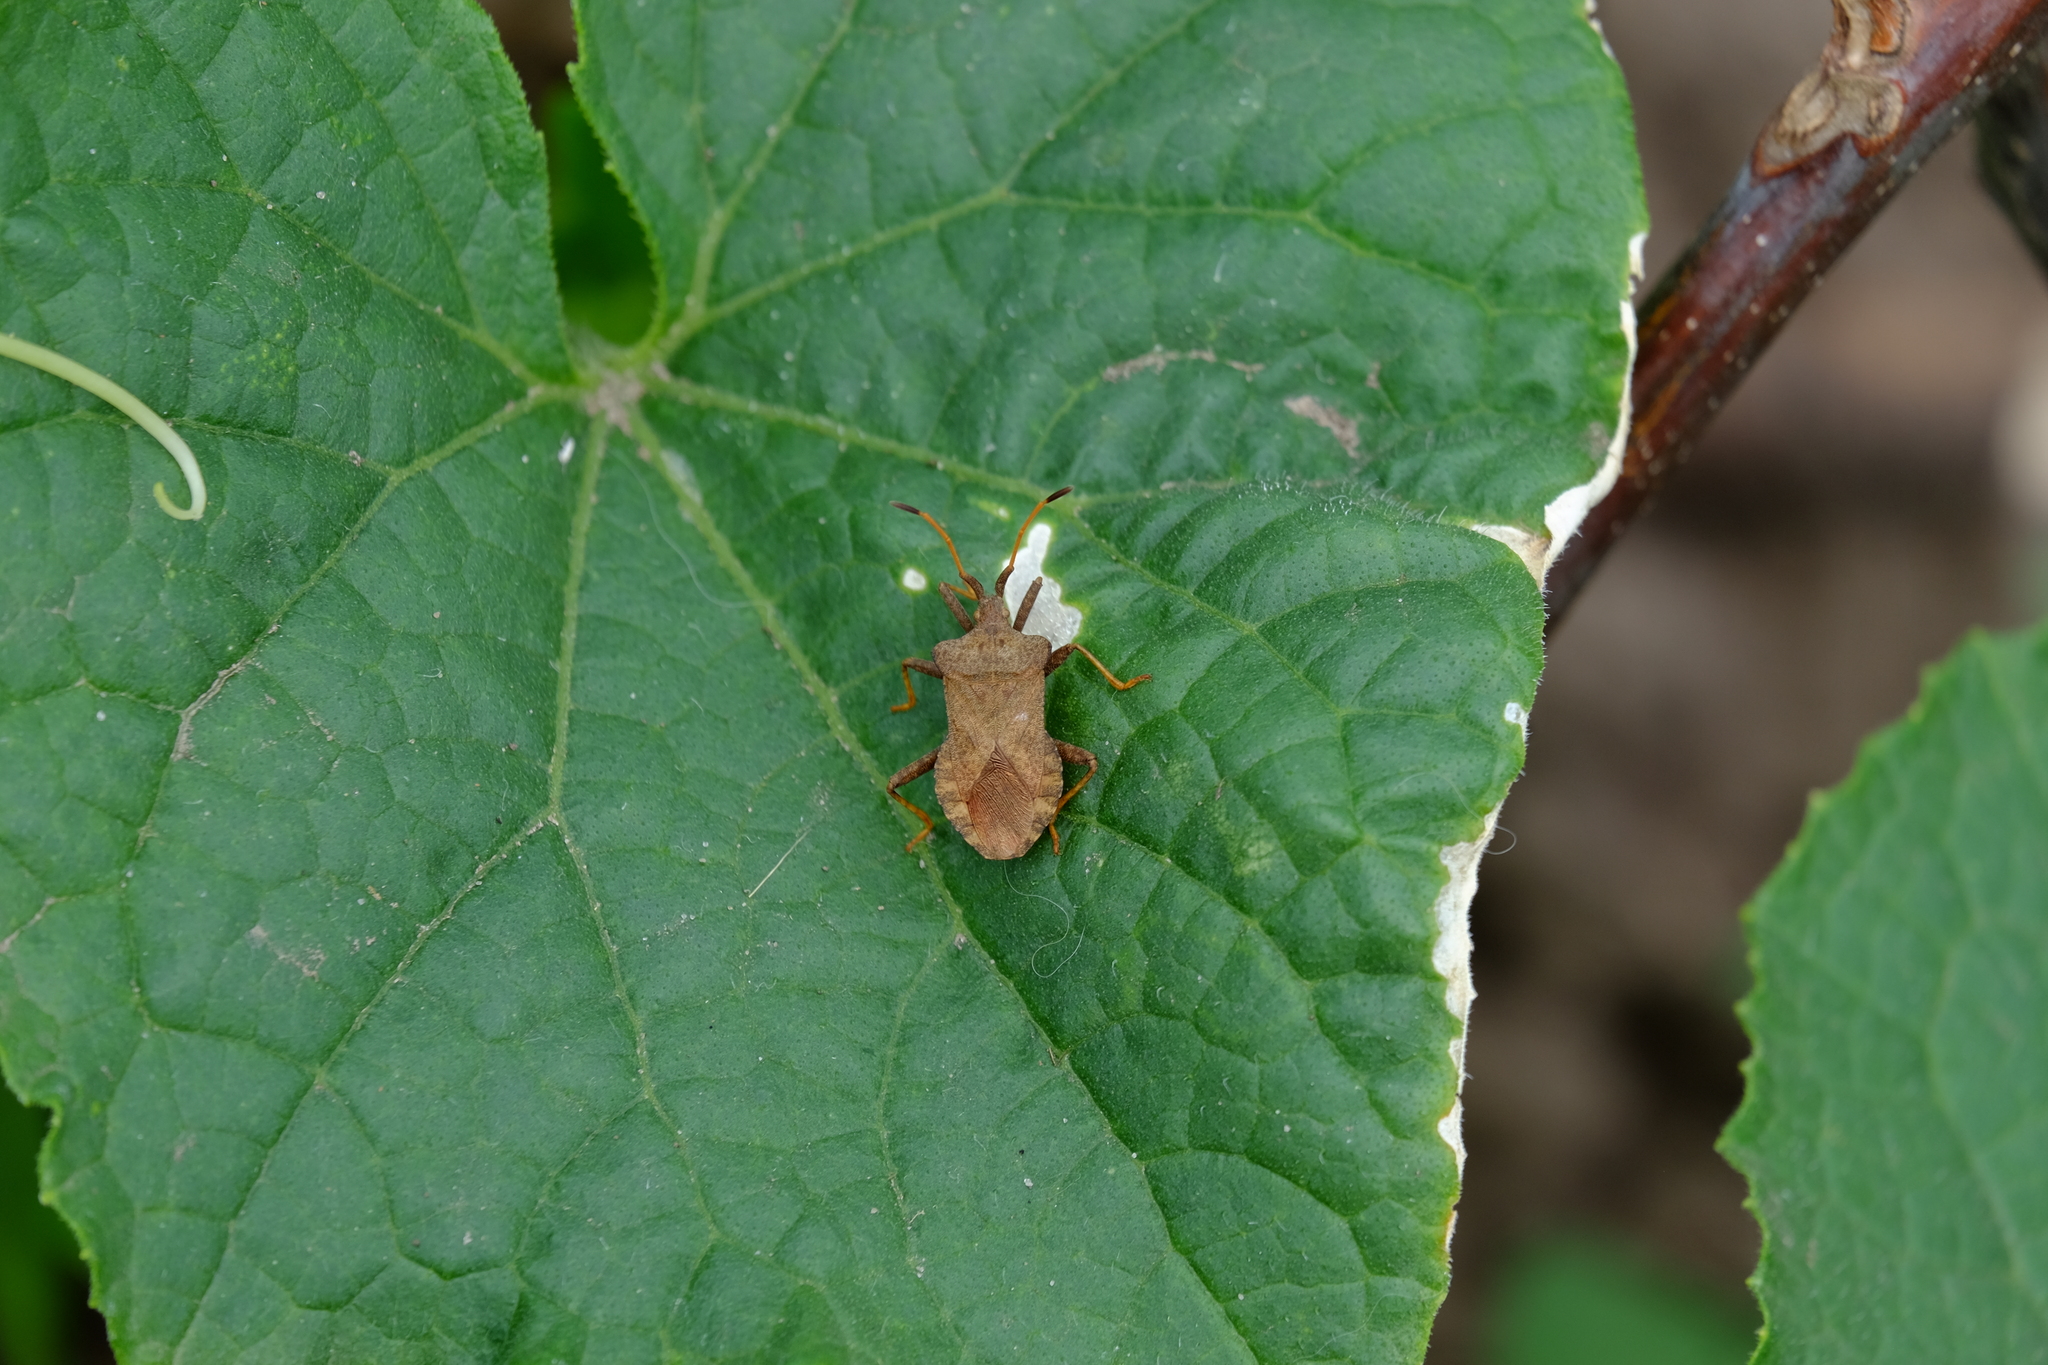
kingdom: Animalia
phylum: Arthropoda
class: Insecta
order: Hemiptera
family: Coreidae
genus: Coreus
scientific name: Coreus marginatus
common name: Dock bug
